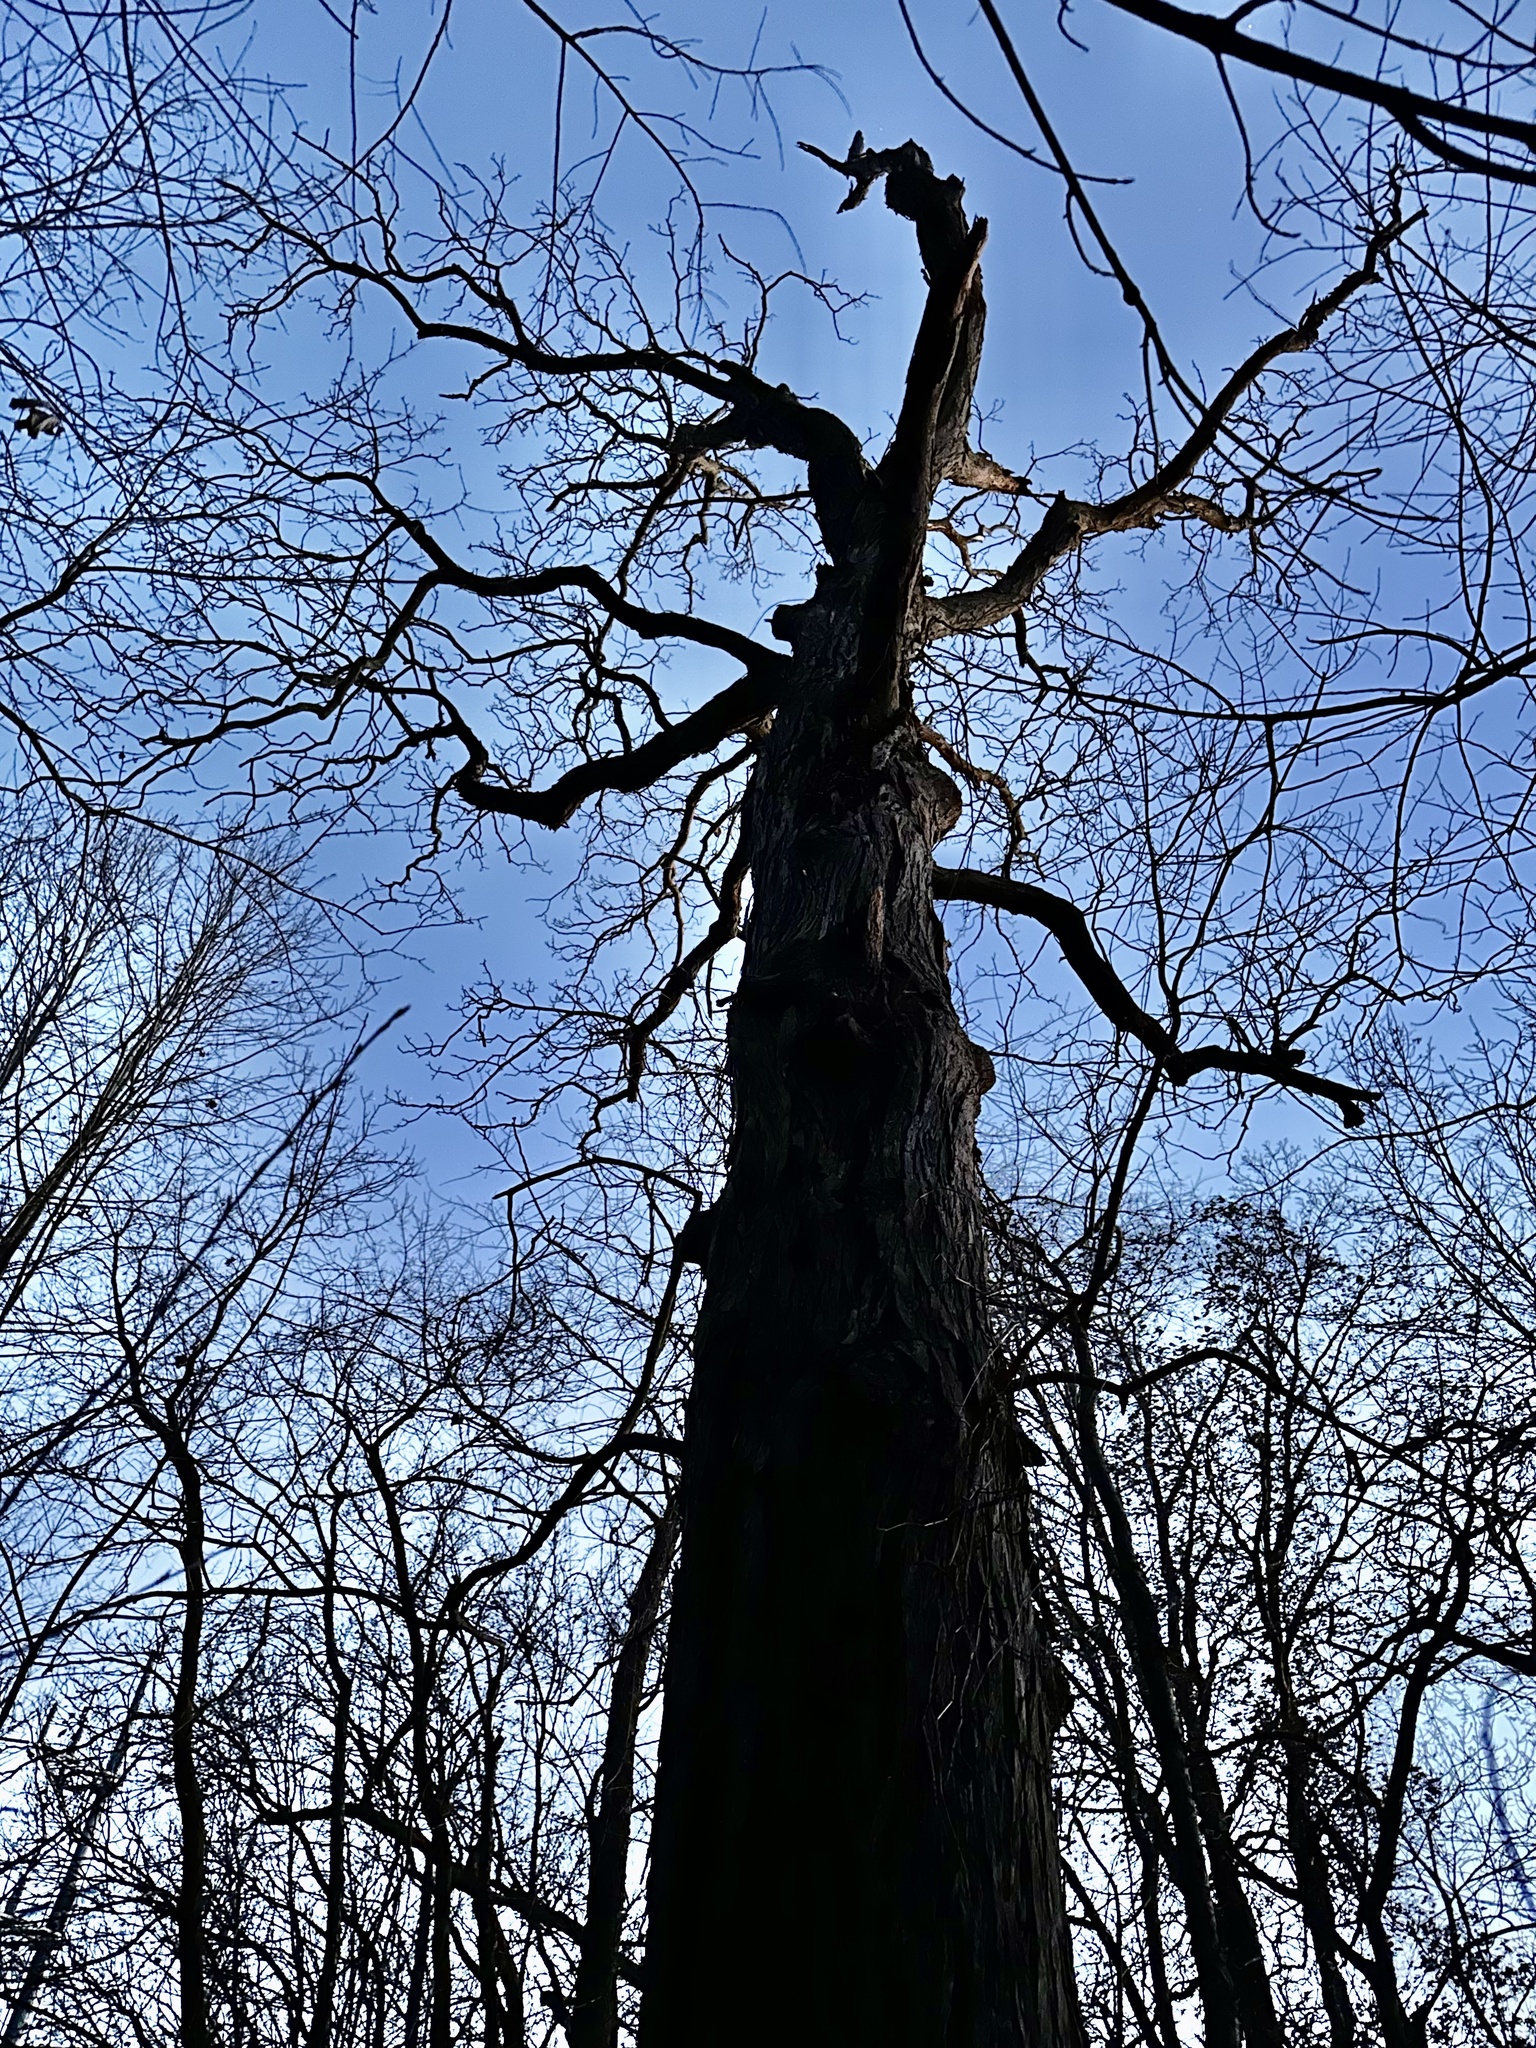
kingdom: Plantae
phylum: Tracheophyta
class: Magnoliopsida
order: Fagales
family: Juglandaceae
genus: Carya
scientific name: Carya ovata
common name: Shagbark hickory
